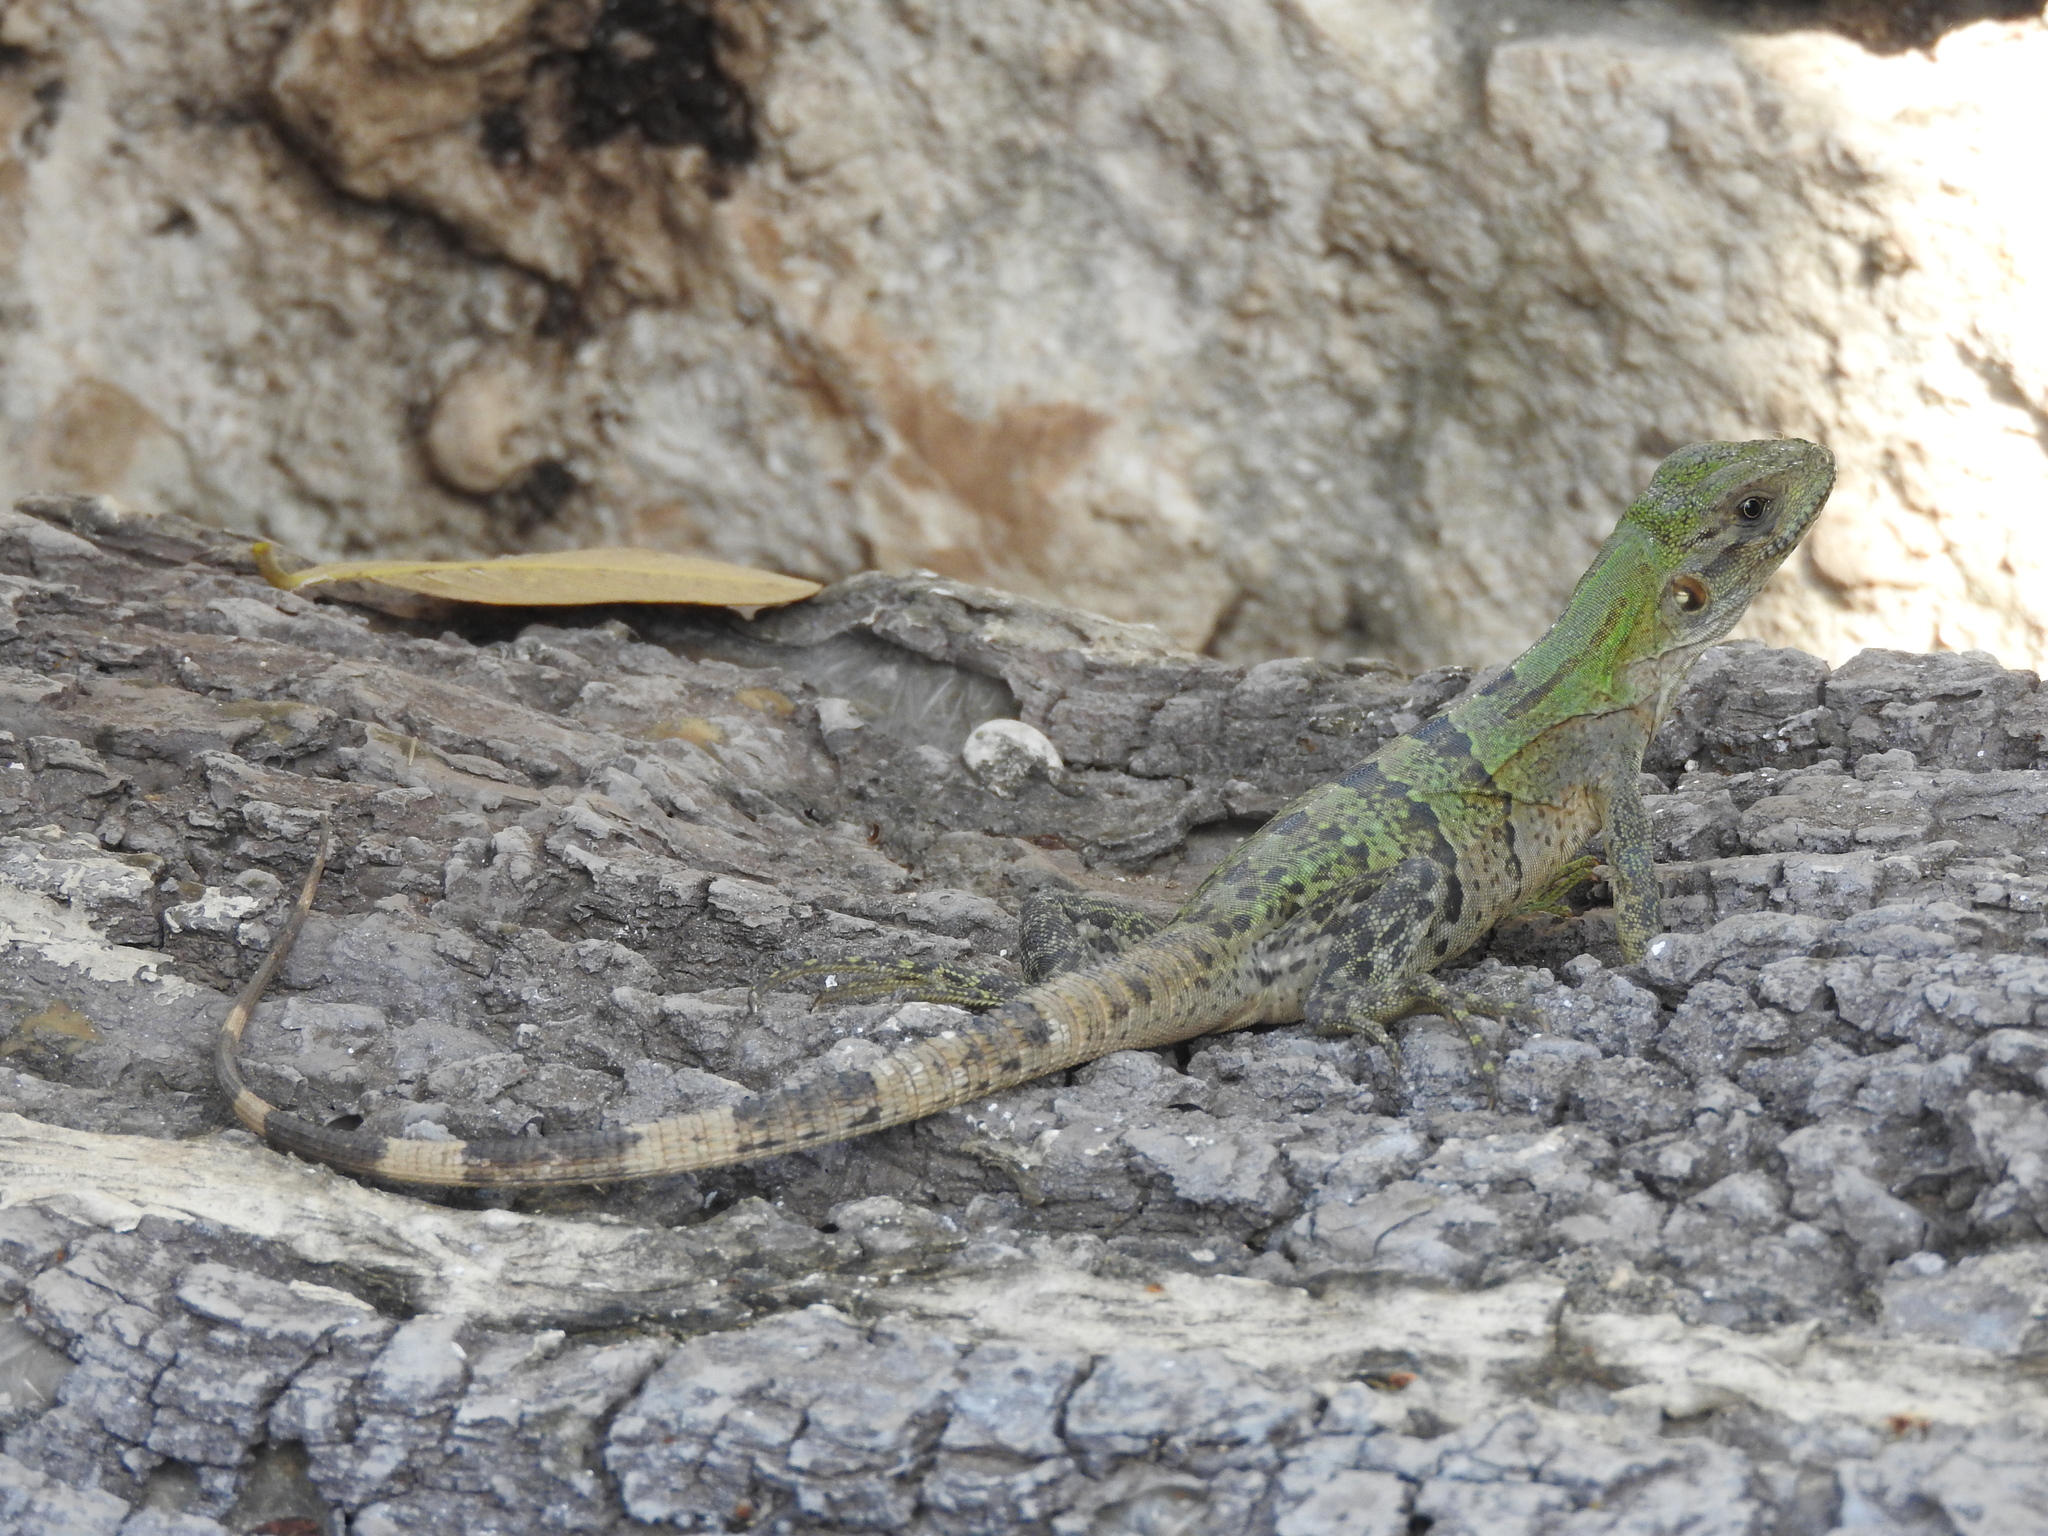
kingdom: Animalia
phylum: Chordata
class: Squamata
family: Iguanidae
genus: Ctenosaura
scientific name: Ctenosaura similis
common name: Black spiny-tailed iguana
